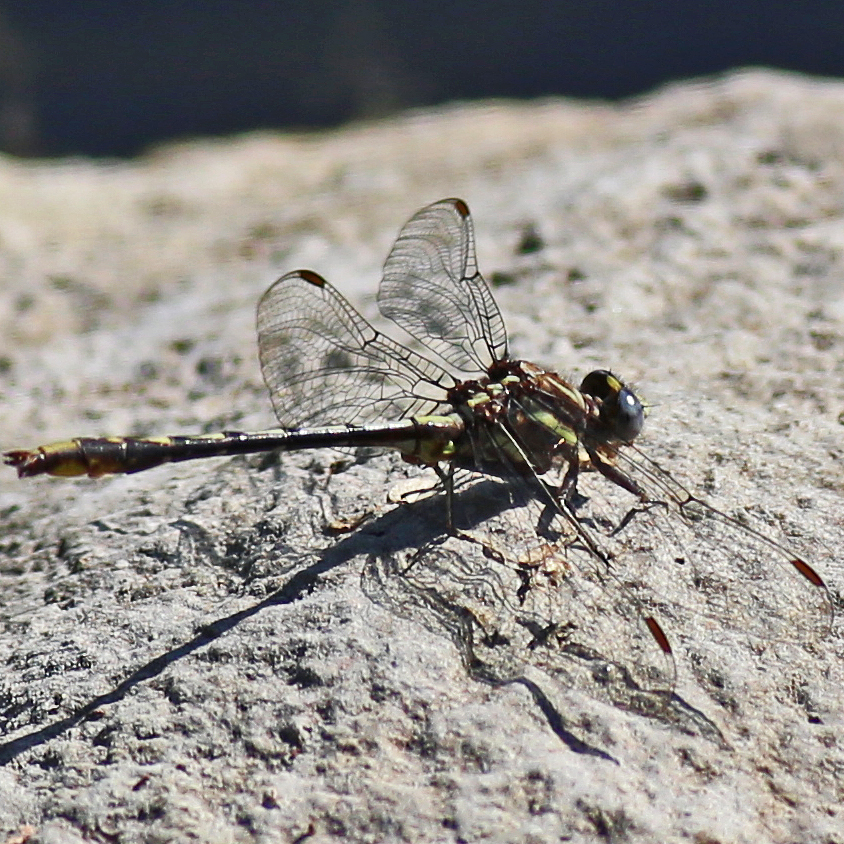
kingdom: Animalia
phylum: Arthropoda
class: Insecta
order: Odonata
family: Gomphidae
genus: Phanogomphus
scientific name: Phanogomphus exilis
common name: Lancet clubtail
